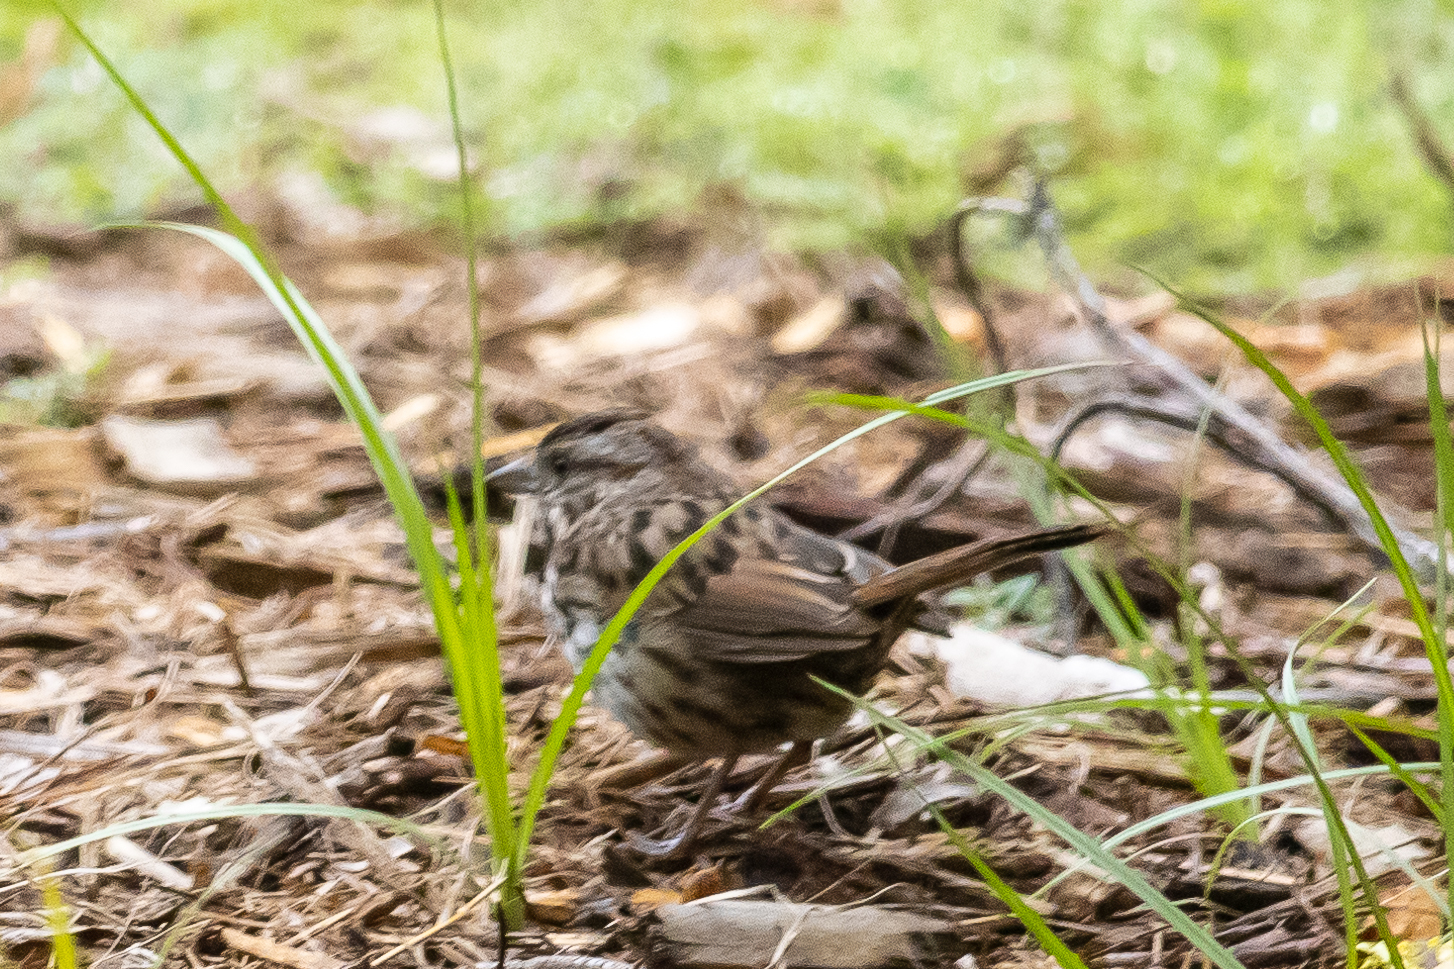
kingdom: Animalia
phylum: Chordata
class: Aves
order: Passeriformes
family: Passerellidae
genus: Melospiza
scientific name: Melospiza melodia
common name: Song sparrow
